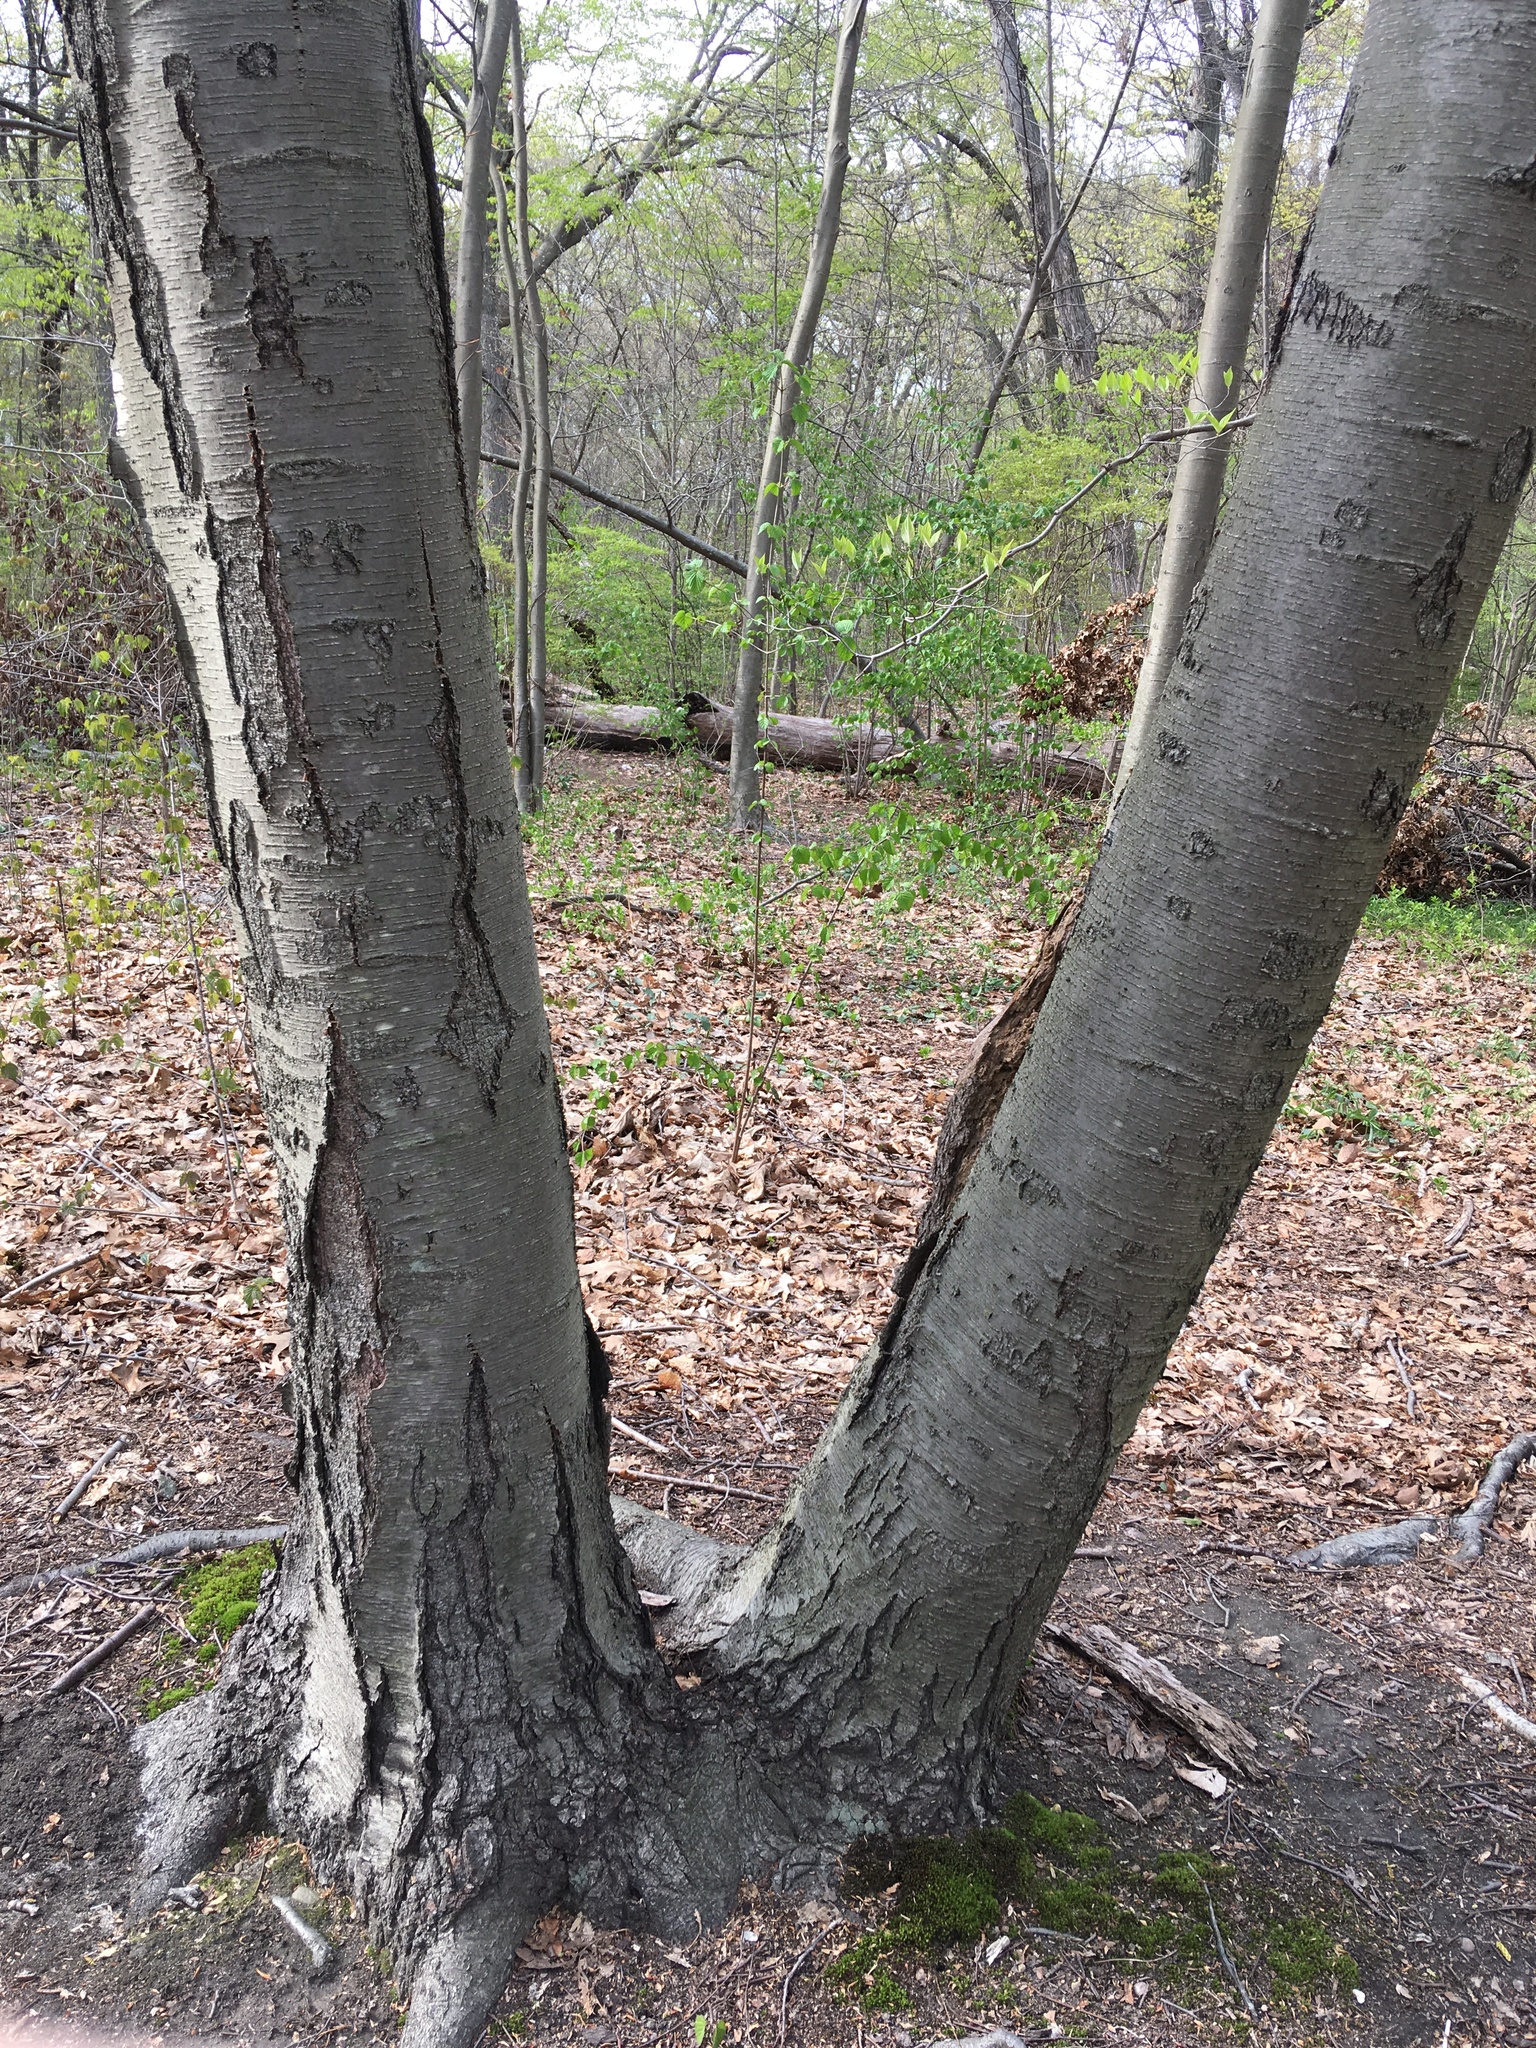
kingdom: Plantae
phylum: Tracheophyta
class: Magnoliopsida
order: Fagales
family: Betulaceae
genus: Betula
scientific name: Betula lenta
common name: Black birch
